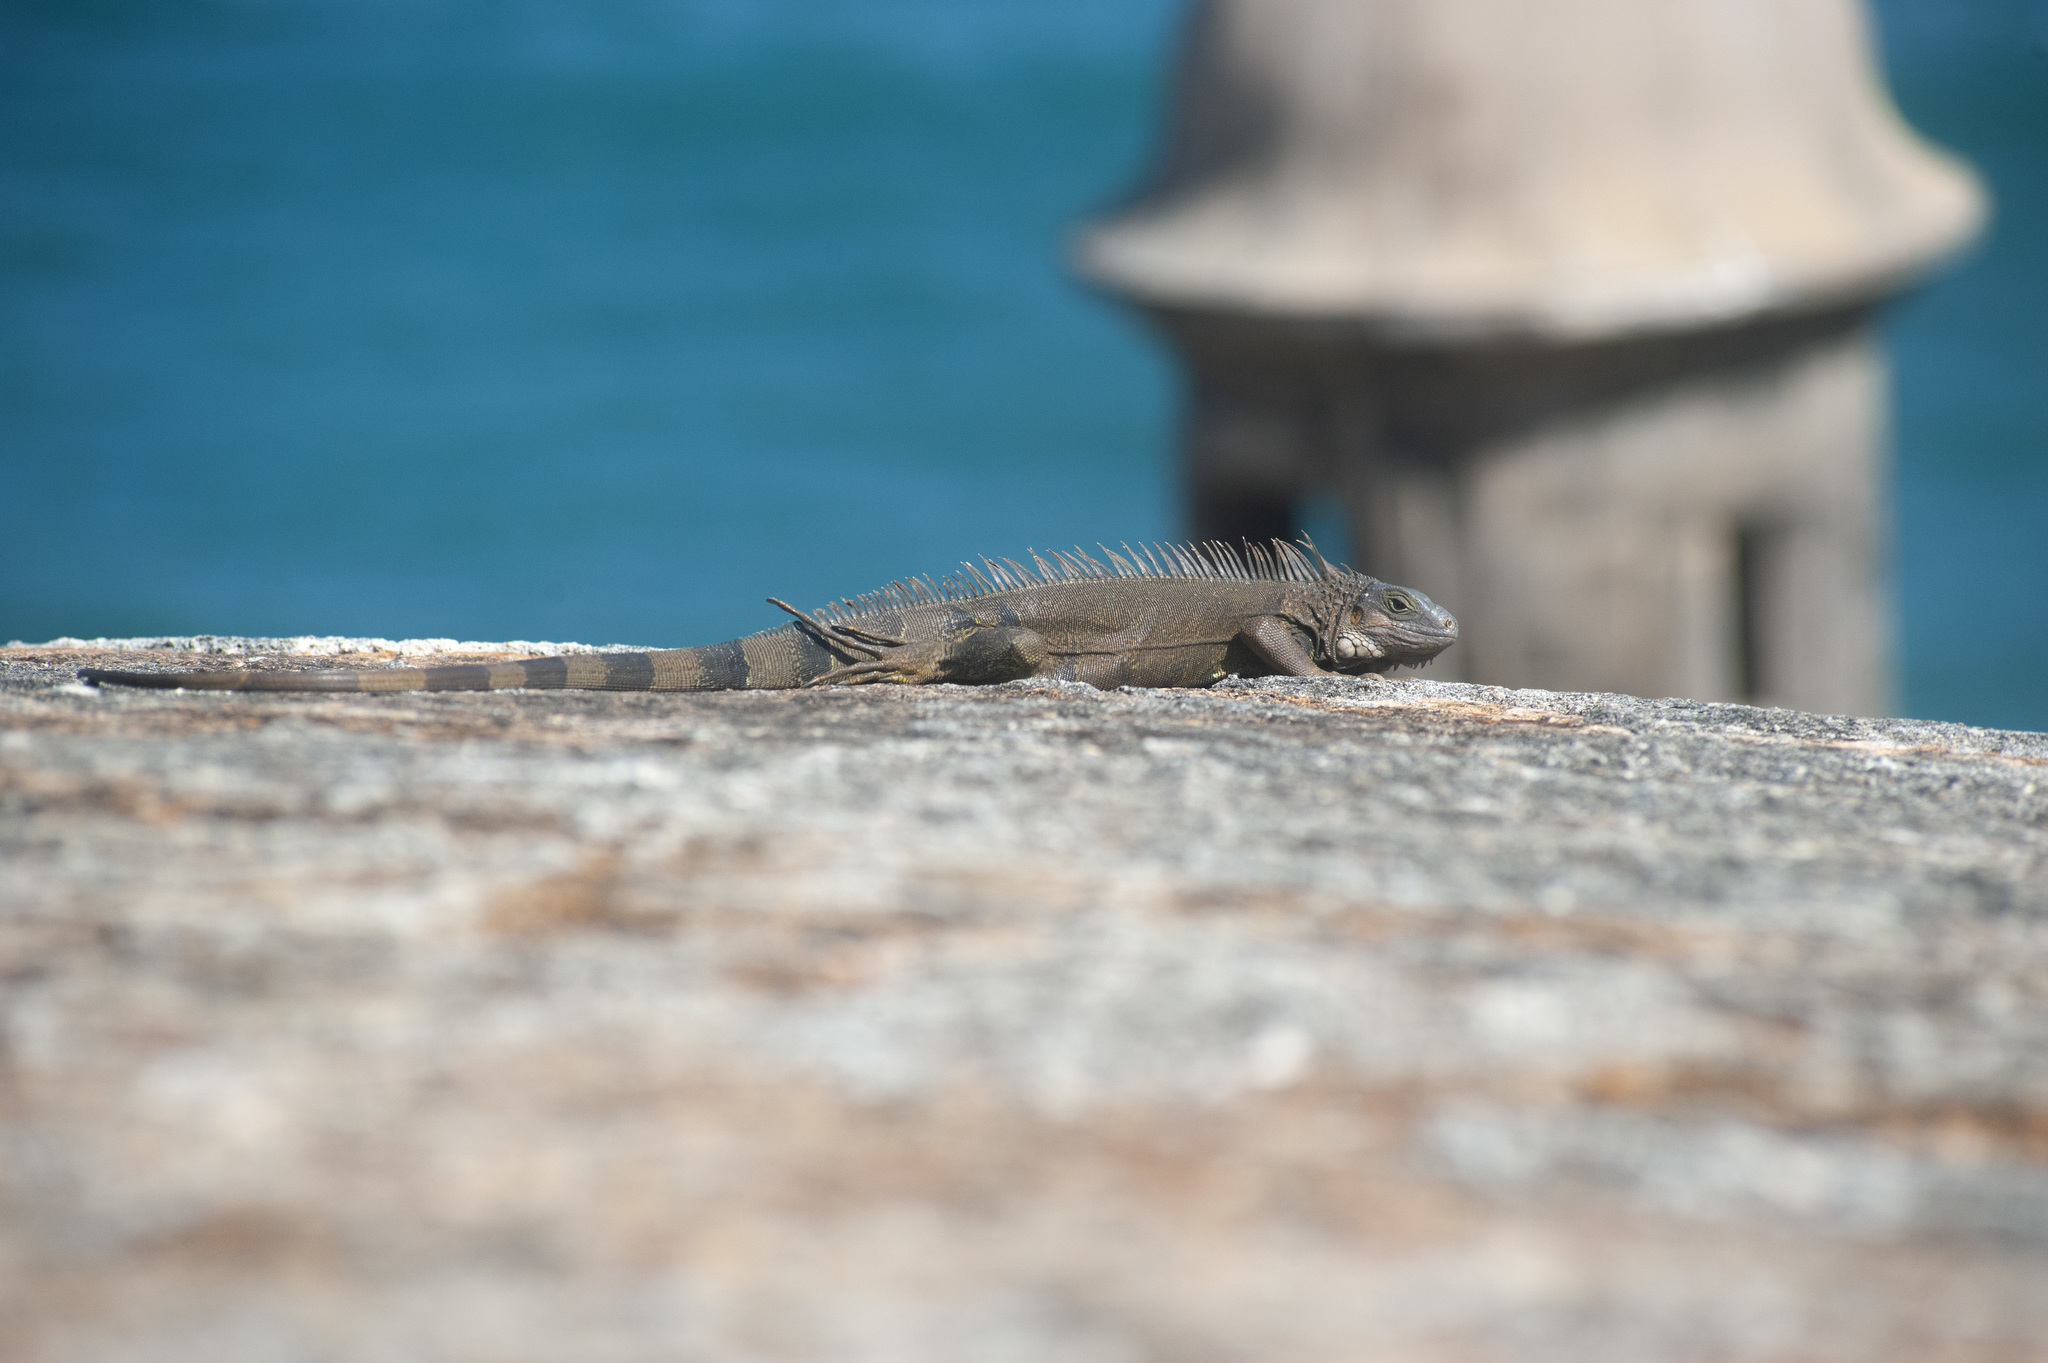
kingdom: Animalia
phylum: Chordata
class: Squamata
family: Iguanidae
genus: Iguana
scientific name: Iguana iguana
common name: Green iguana
